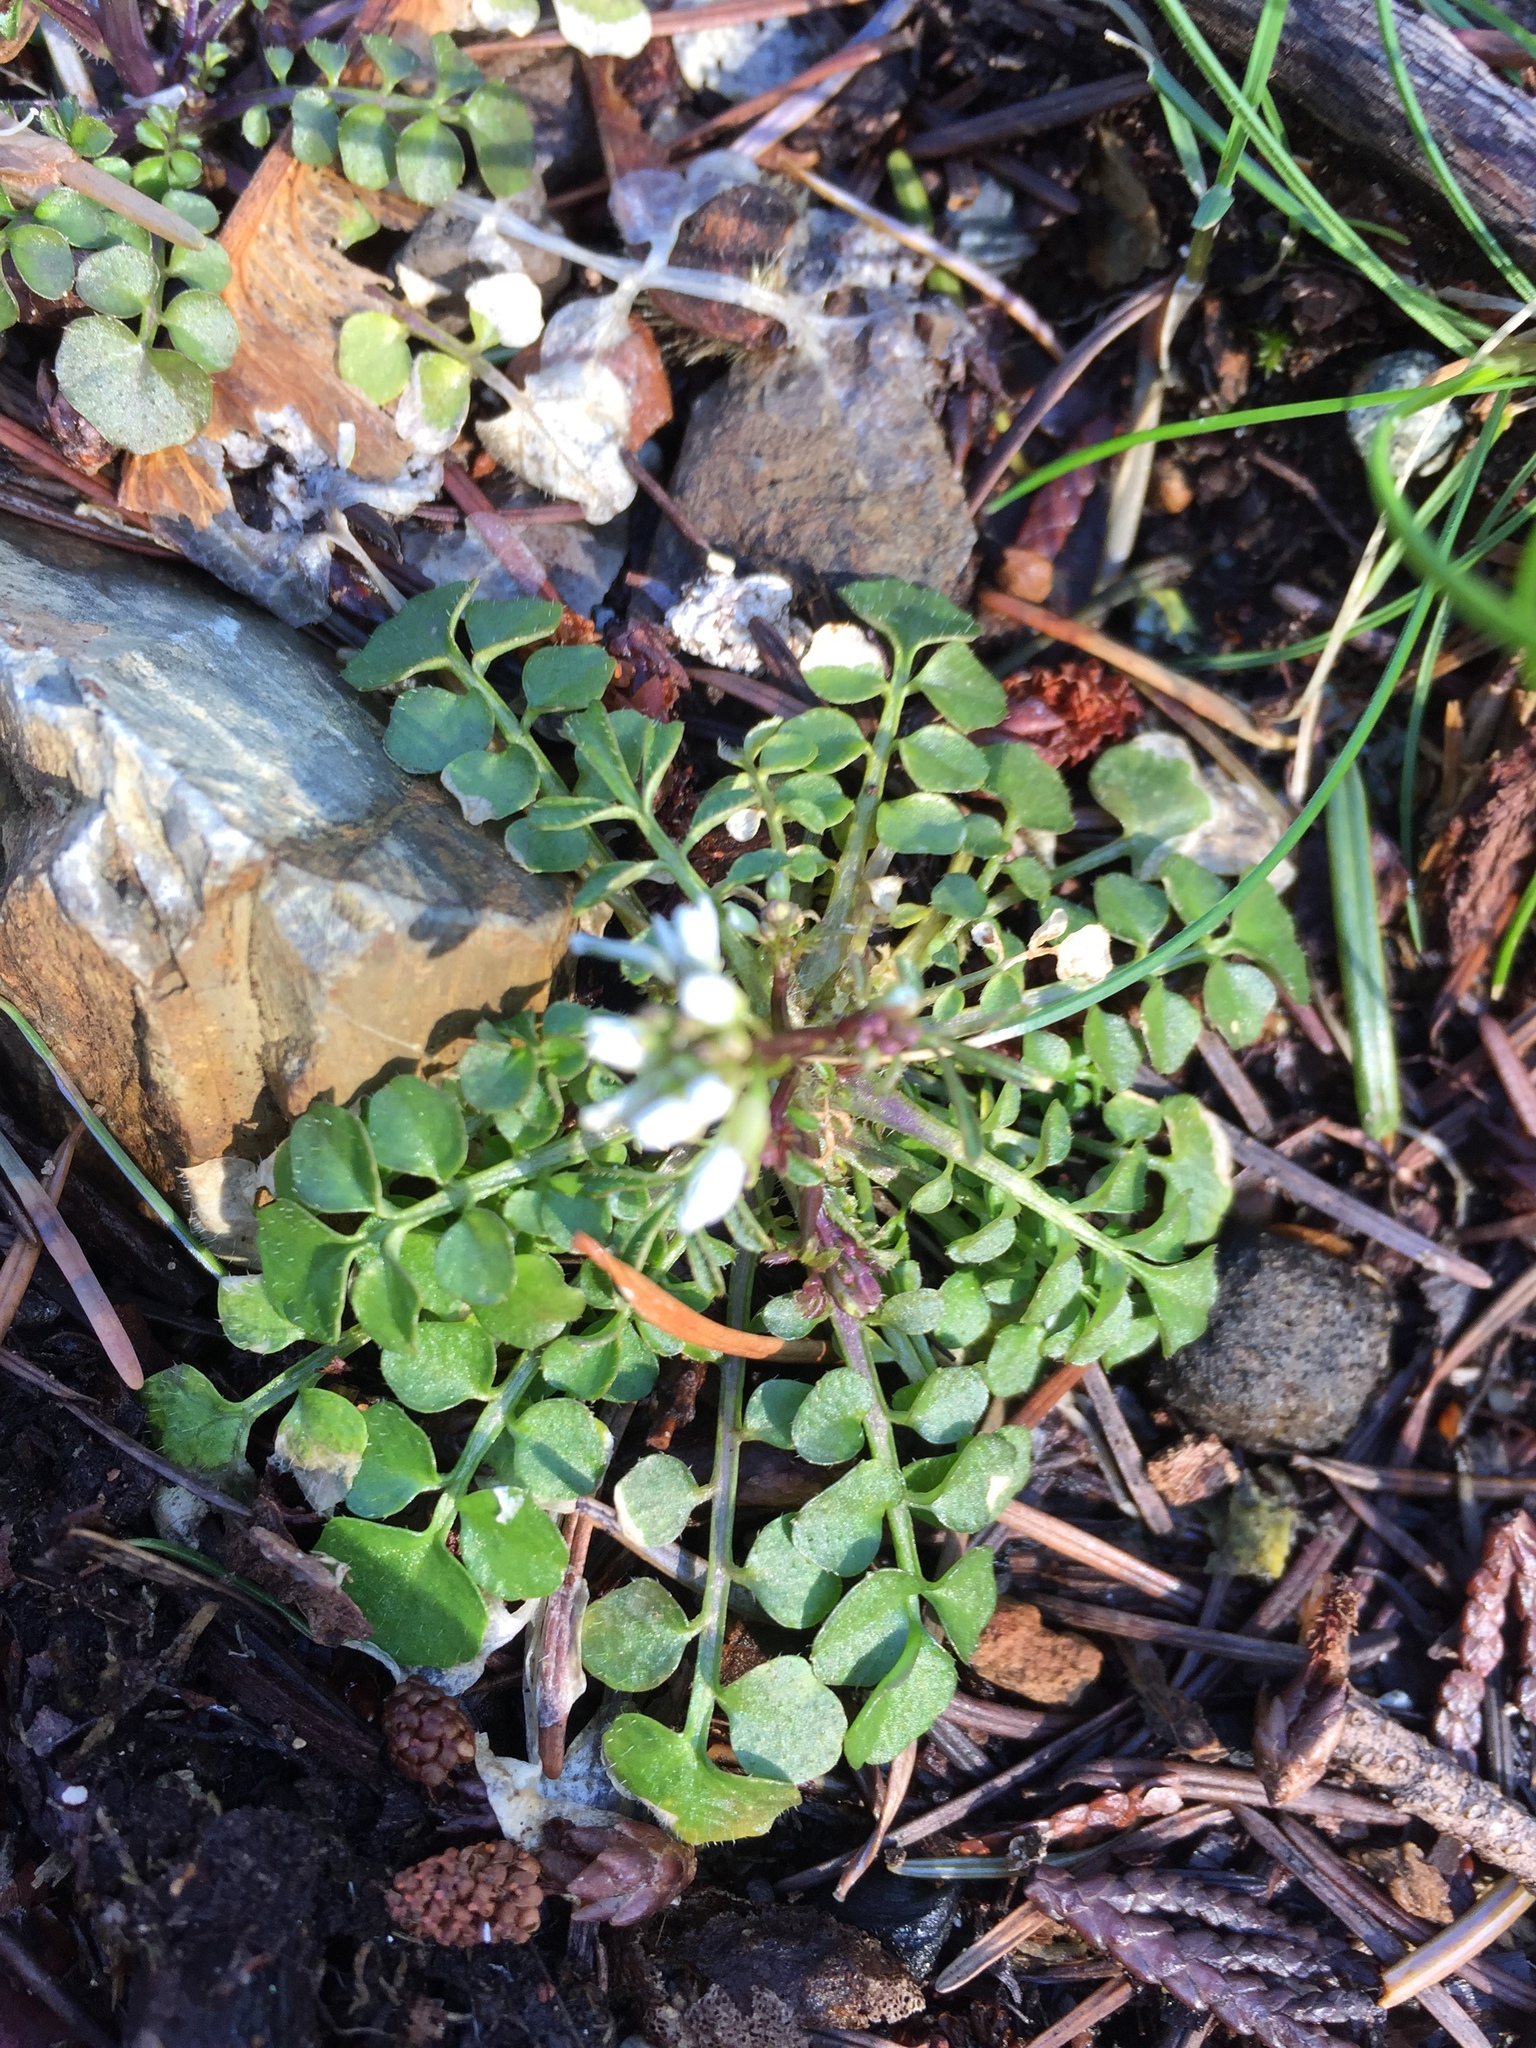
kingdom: Plantae
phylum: Tracheophyta
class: Magnoliopsida
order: Brassicales
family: Brassicaceae
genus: Cardamine
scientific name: Cardamine hirsuta
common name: Hairy bittercress
